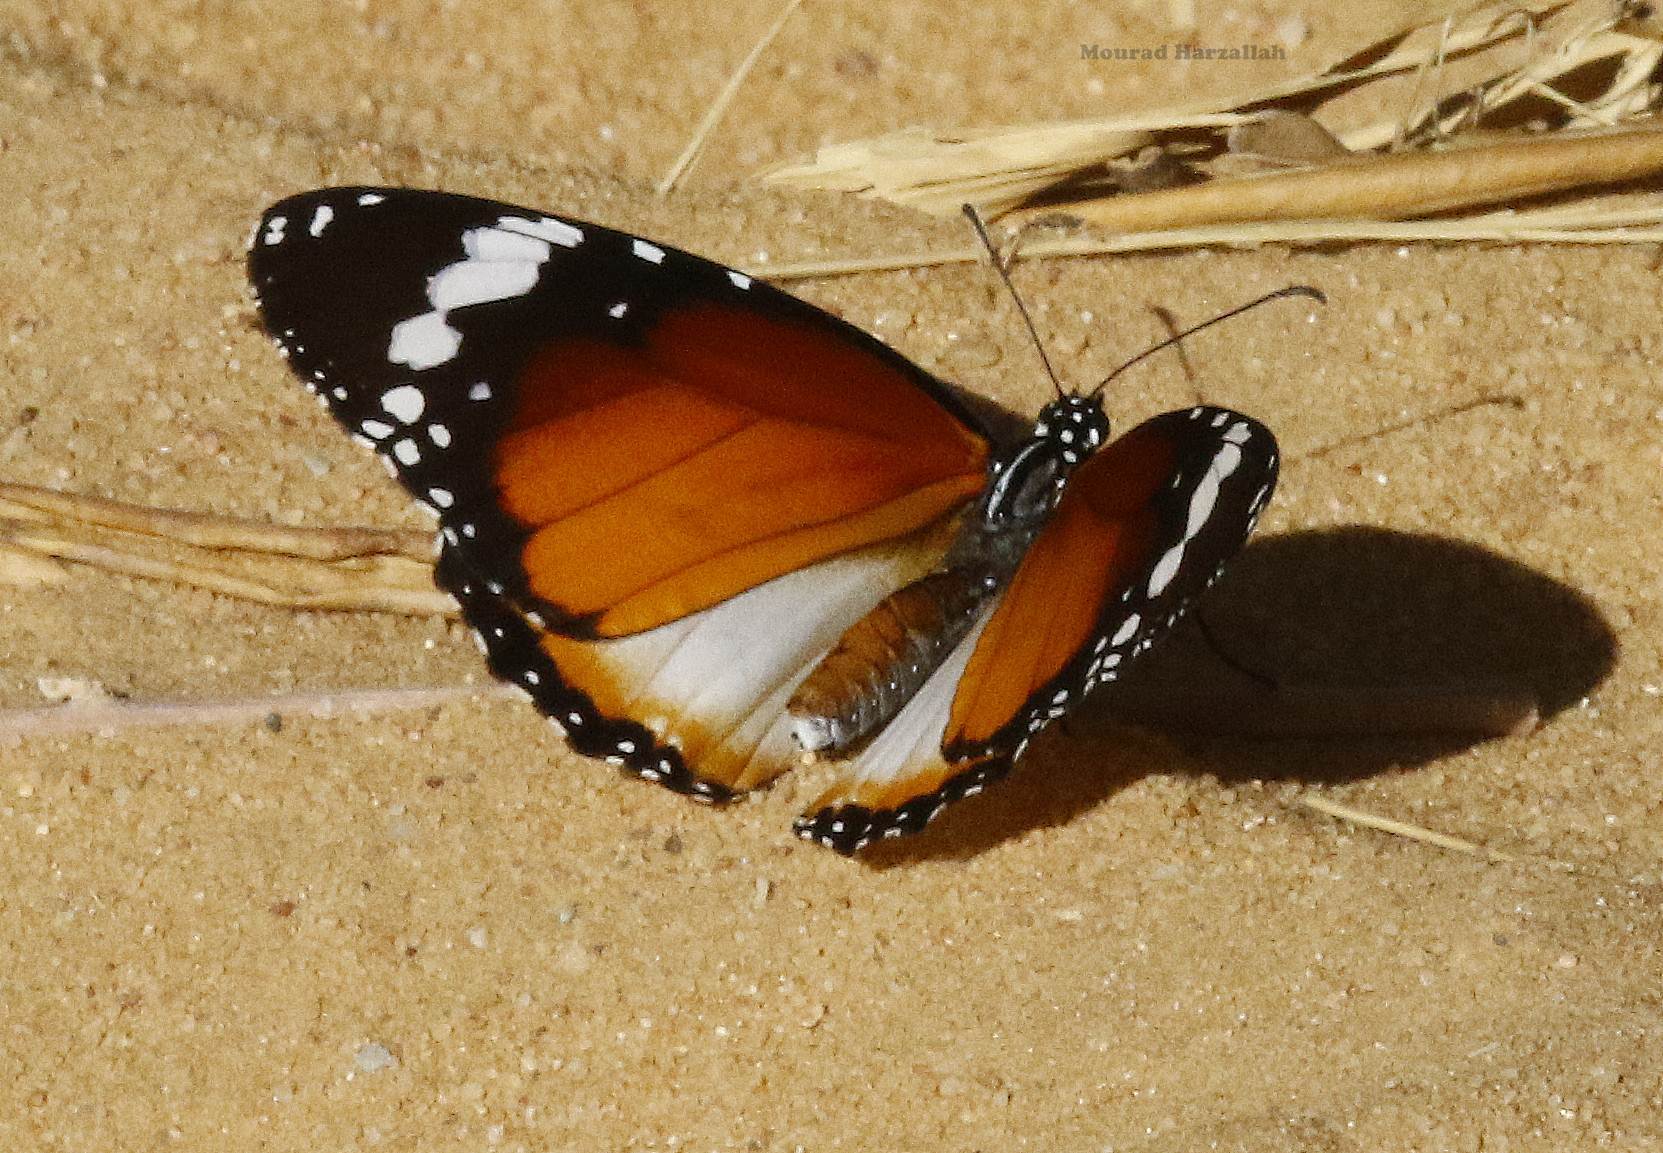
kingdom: Animalia
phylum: Arthropoda
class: Insecta
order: Lepidoptera
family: Nymphalidae
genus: Danaus
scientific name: Danaus chrysippus
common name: Plain tiger
